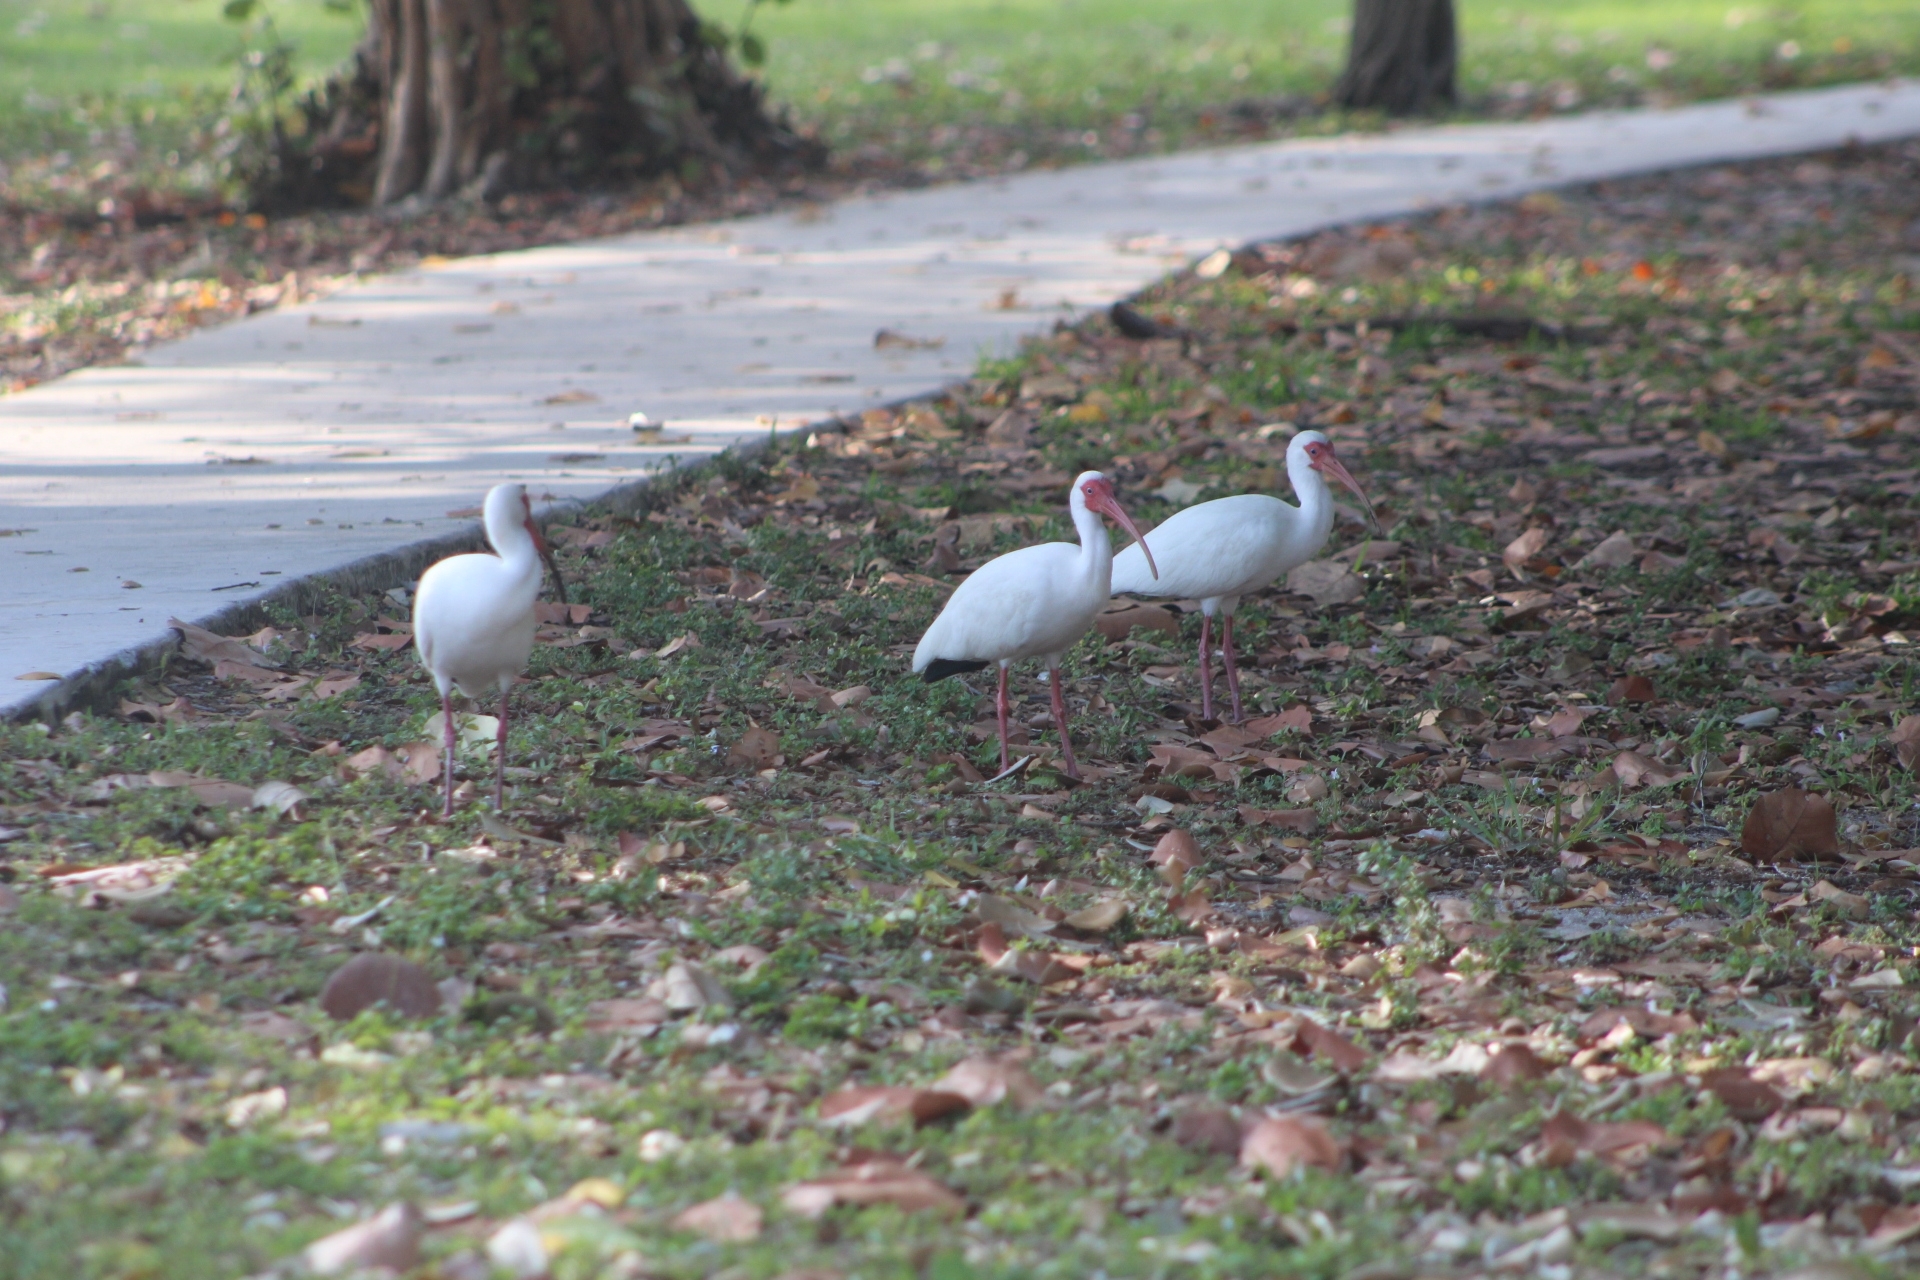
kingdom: Animalia
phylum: Chordata
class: Aves
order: Pelecaniformes
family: Threskiornithidae
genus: Eudocimus
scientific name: Eudocimus albus
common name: White ibis
